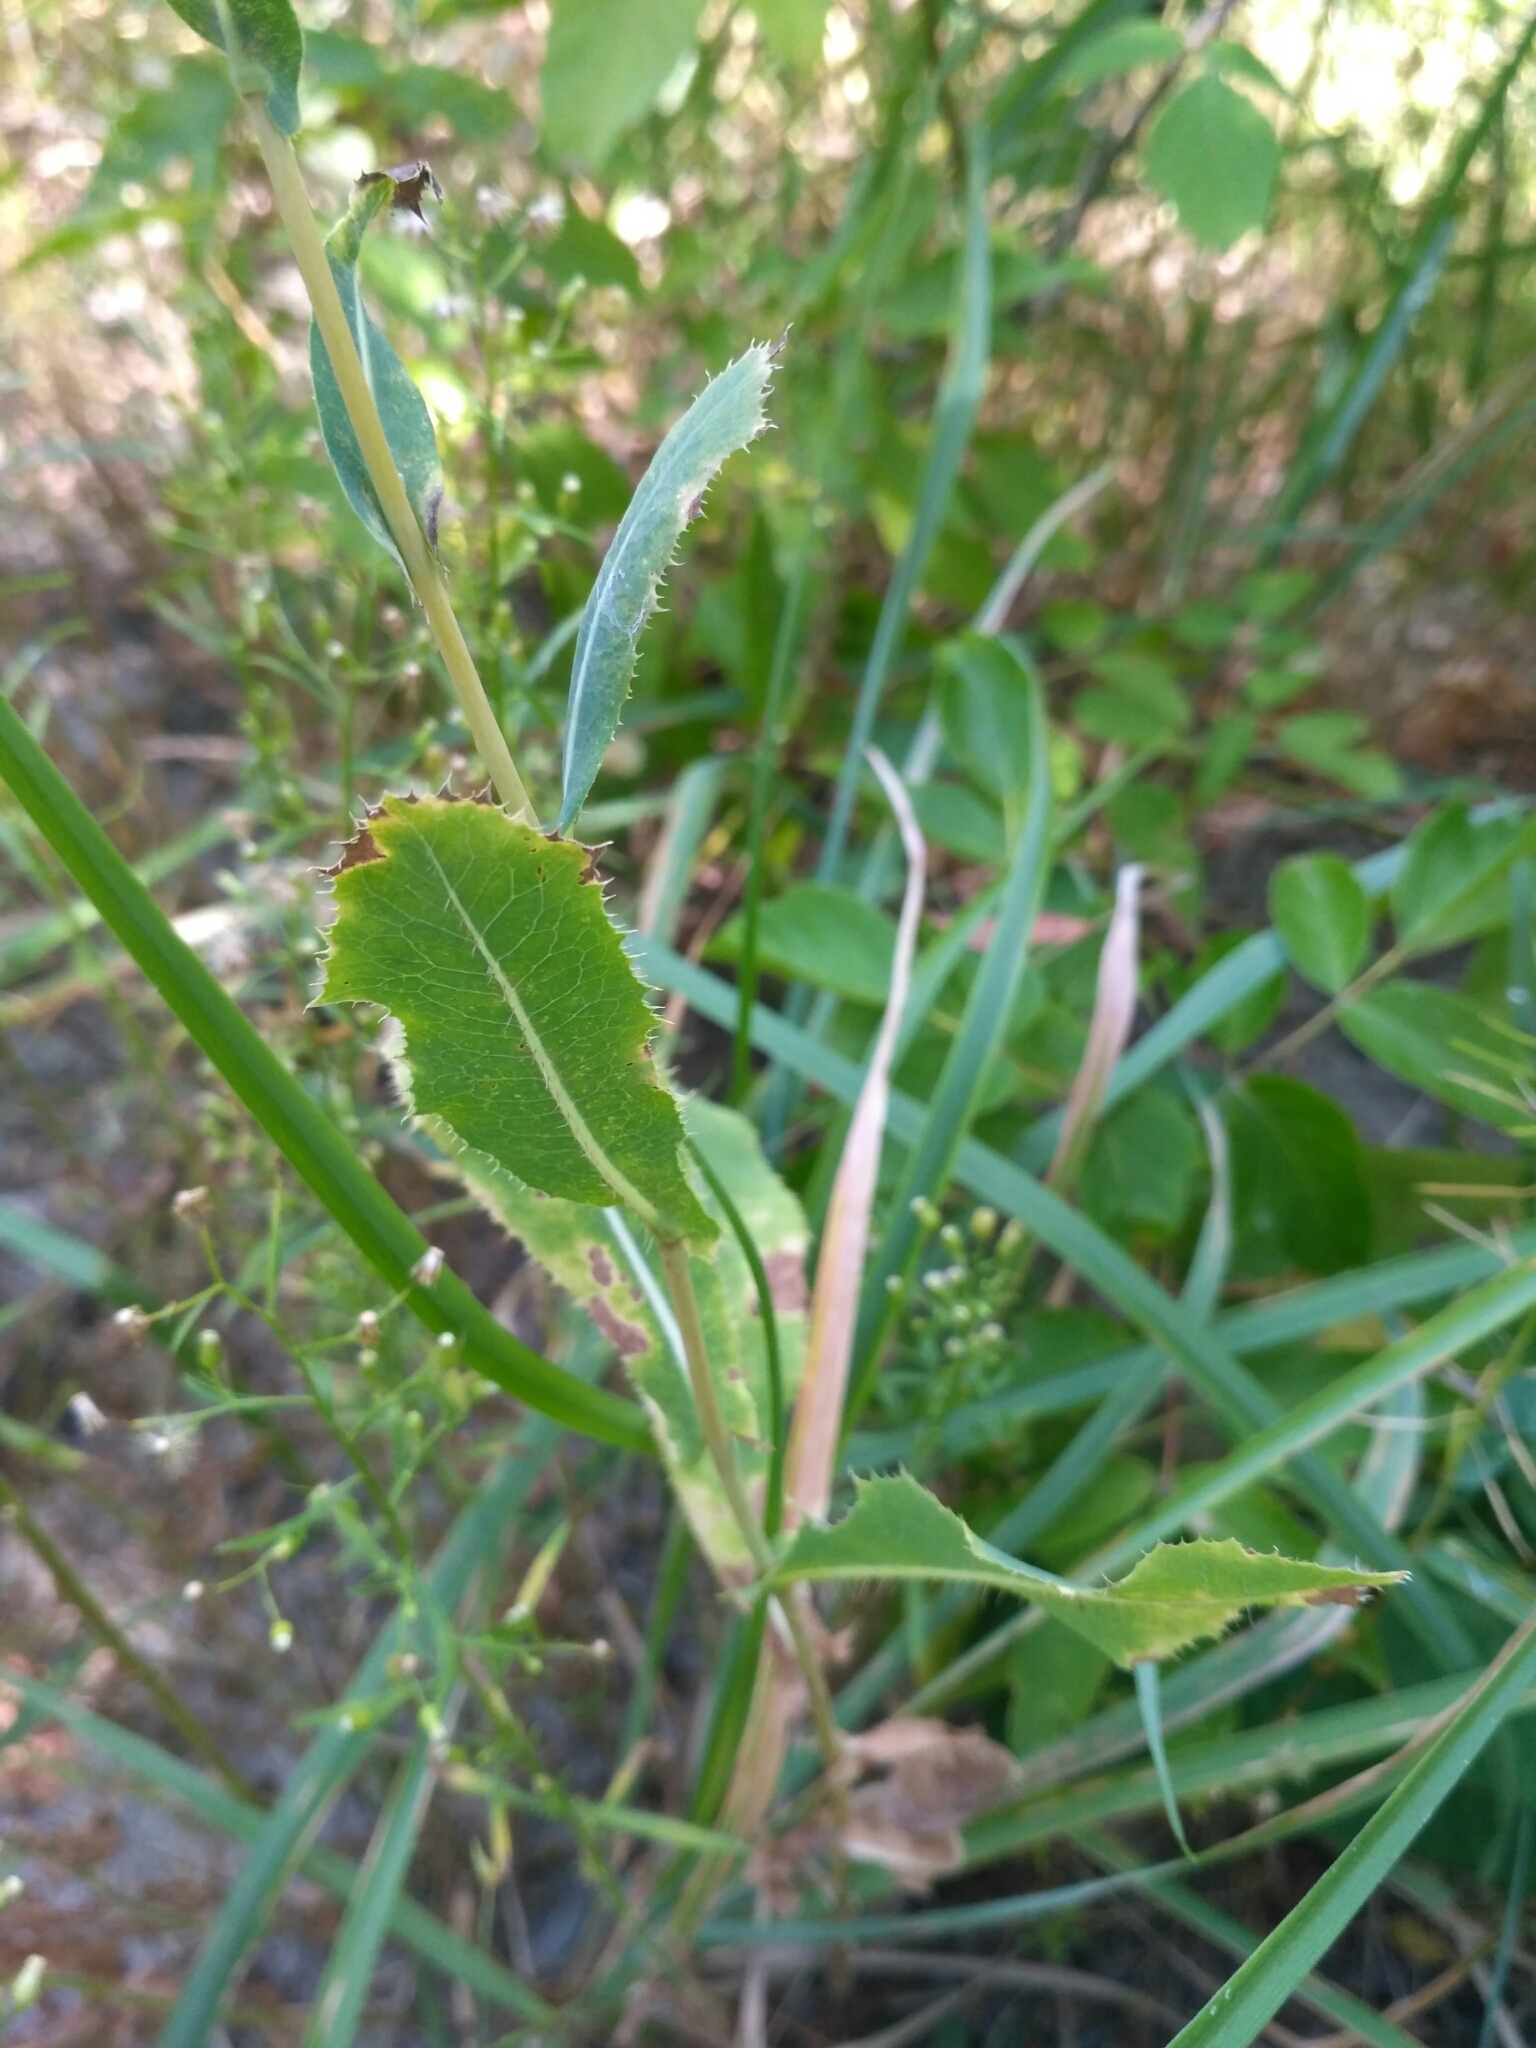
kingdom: Plantae
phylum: Tracheophyta
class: Magnoliopsida
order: Asterales
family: Asteraceae
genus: Lactuca
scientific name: Lactuca serriola
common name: Prickly lettuce
